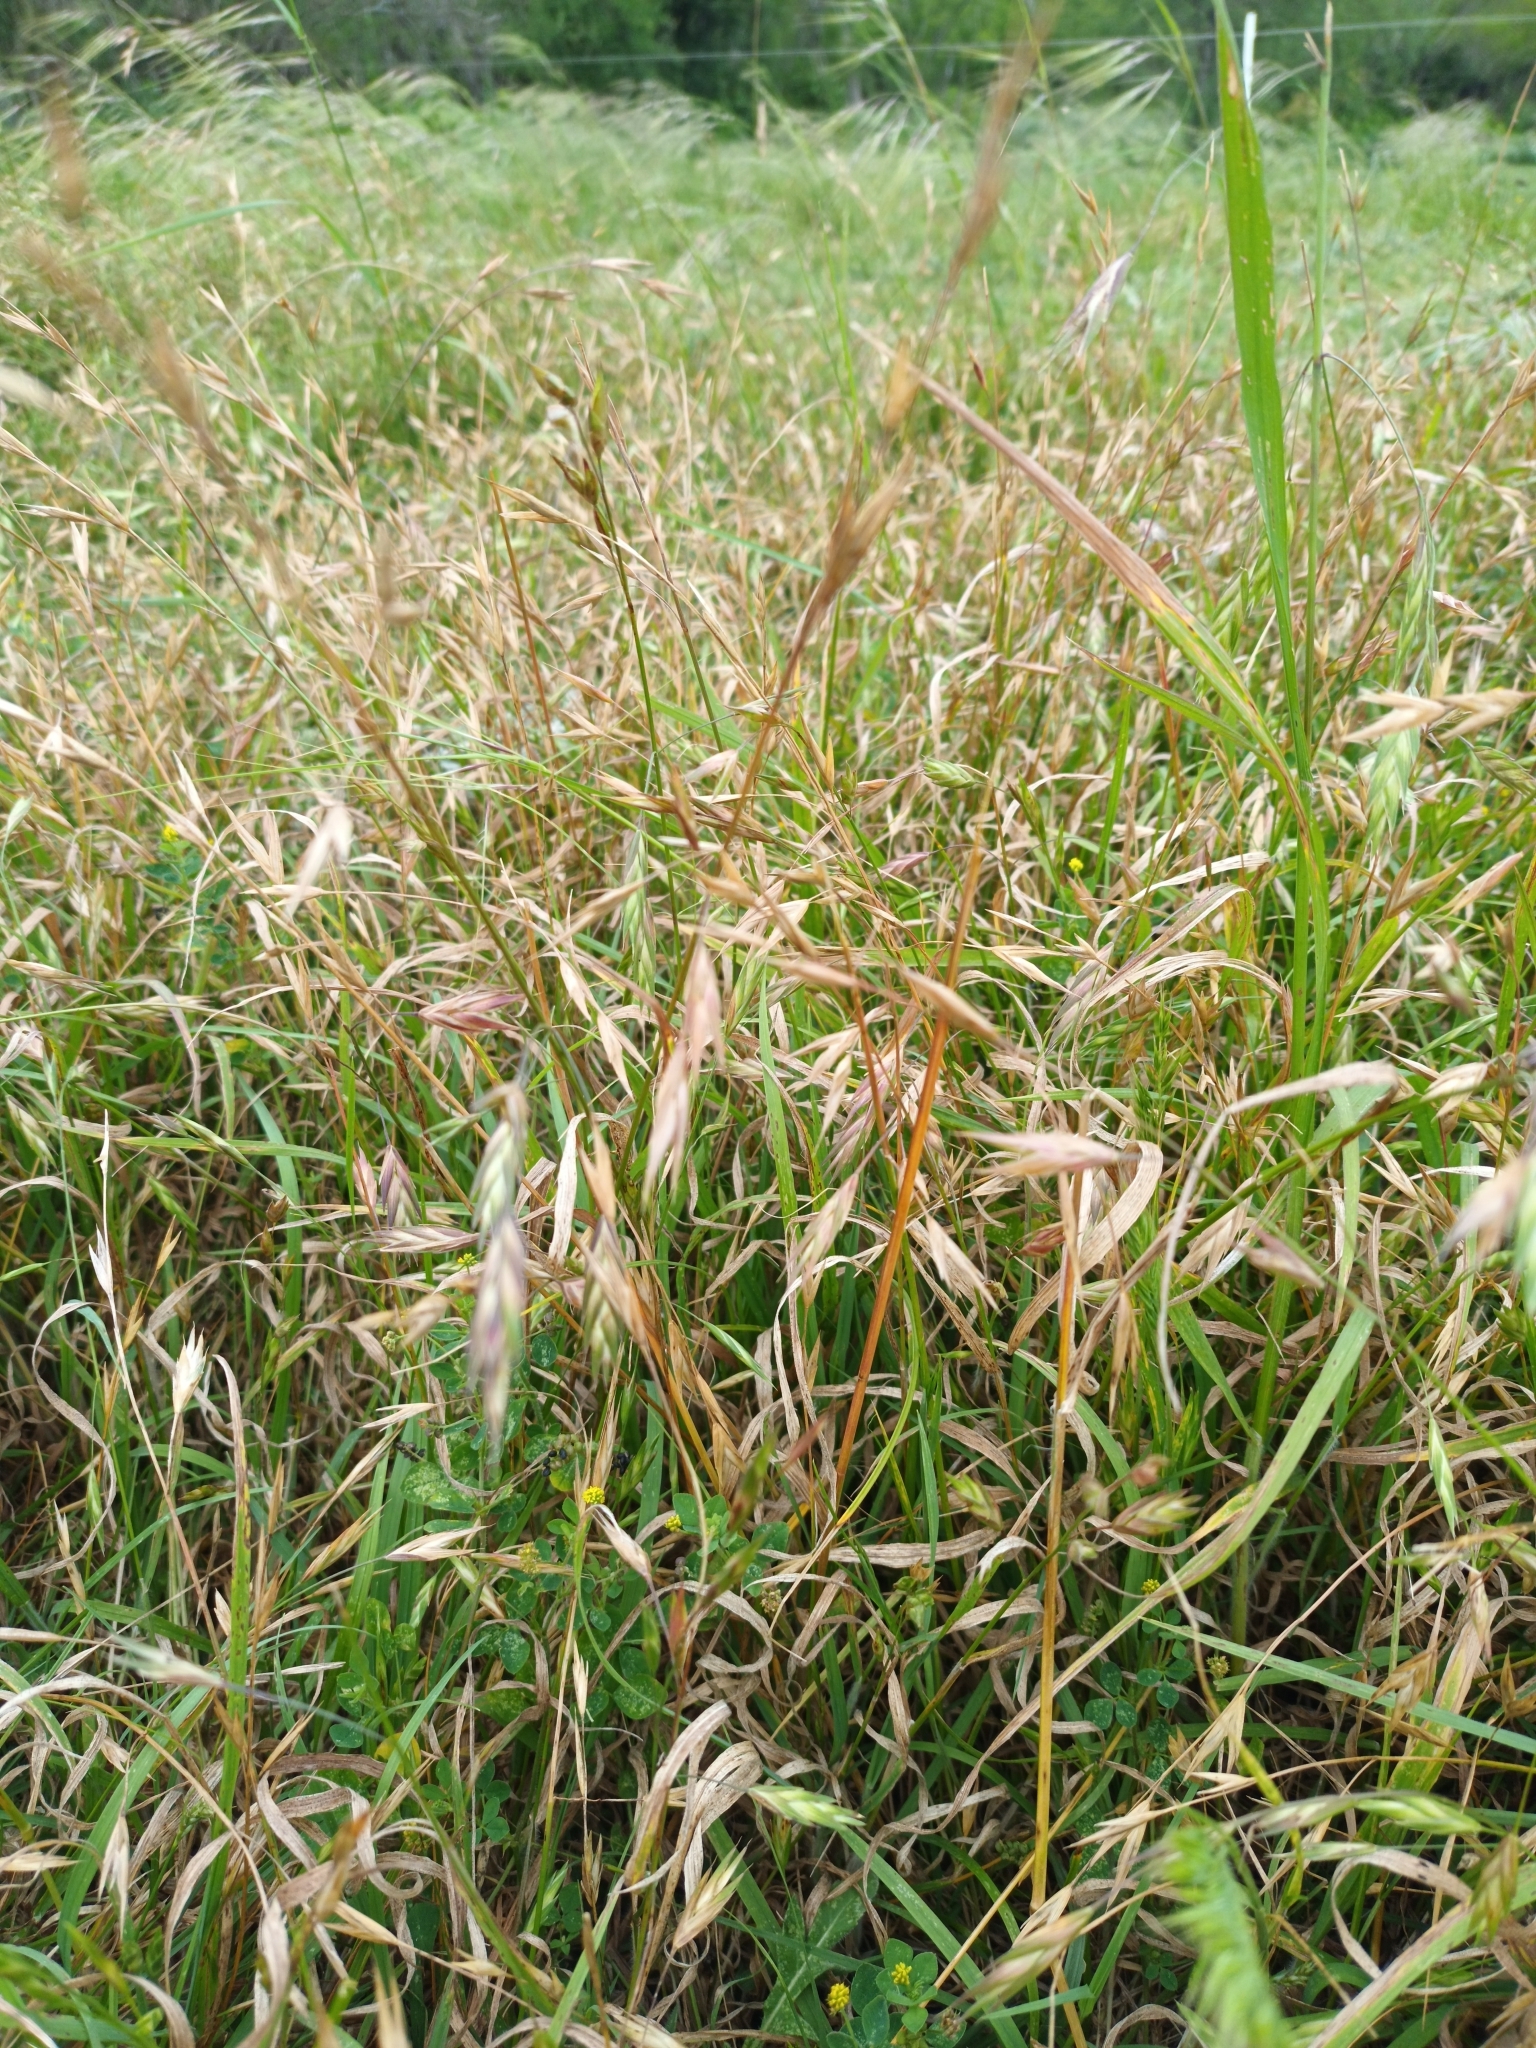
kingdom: Plantae
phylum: Tracheophyta
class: Liliopsida
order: Poales
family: Poaceae
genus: Bromus
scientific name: Bromus catharticus
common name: Rescuegrass
